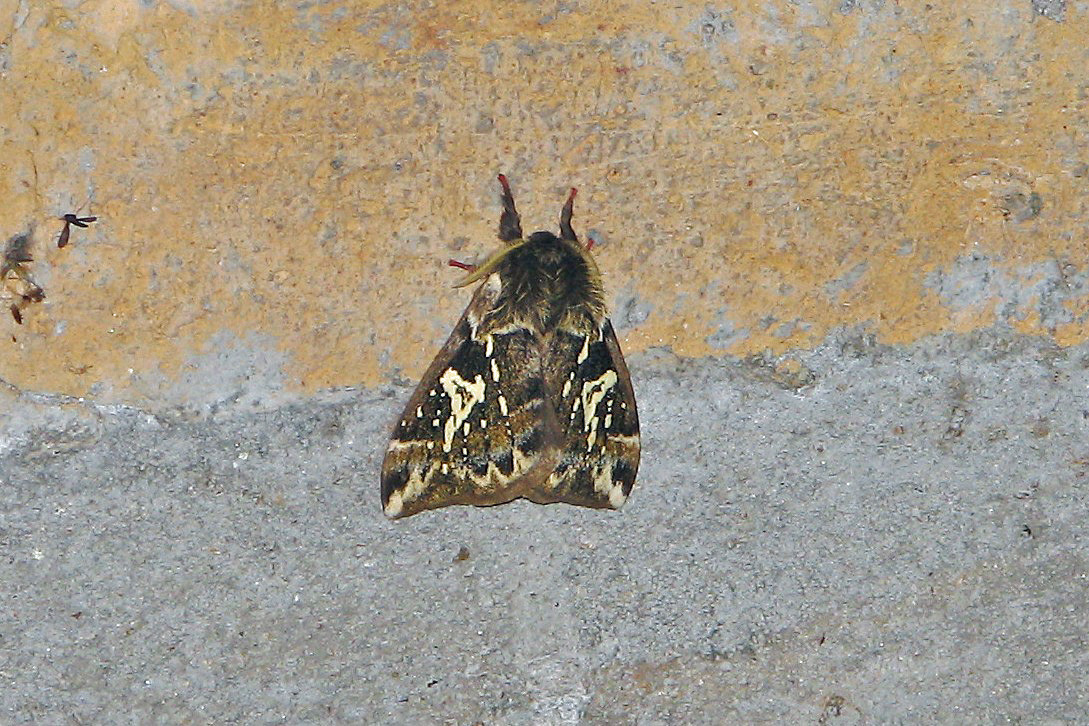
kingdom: Animalia
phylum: Arthropoda
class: Insecta
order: Lepidoptera
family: Saturniidae
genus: Dirphiopsis
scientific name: Dirphiopsis epiolina
